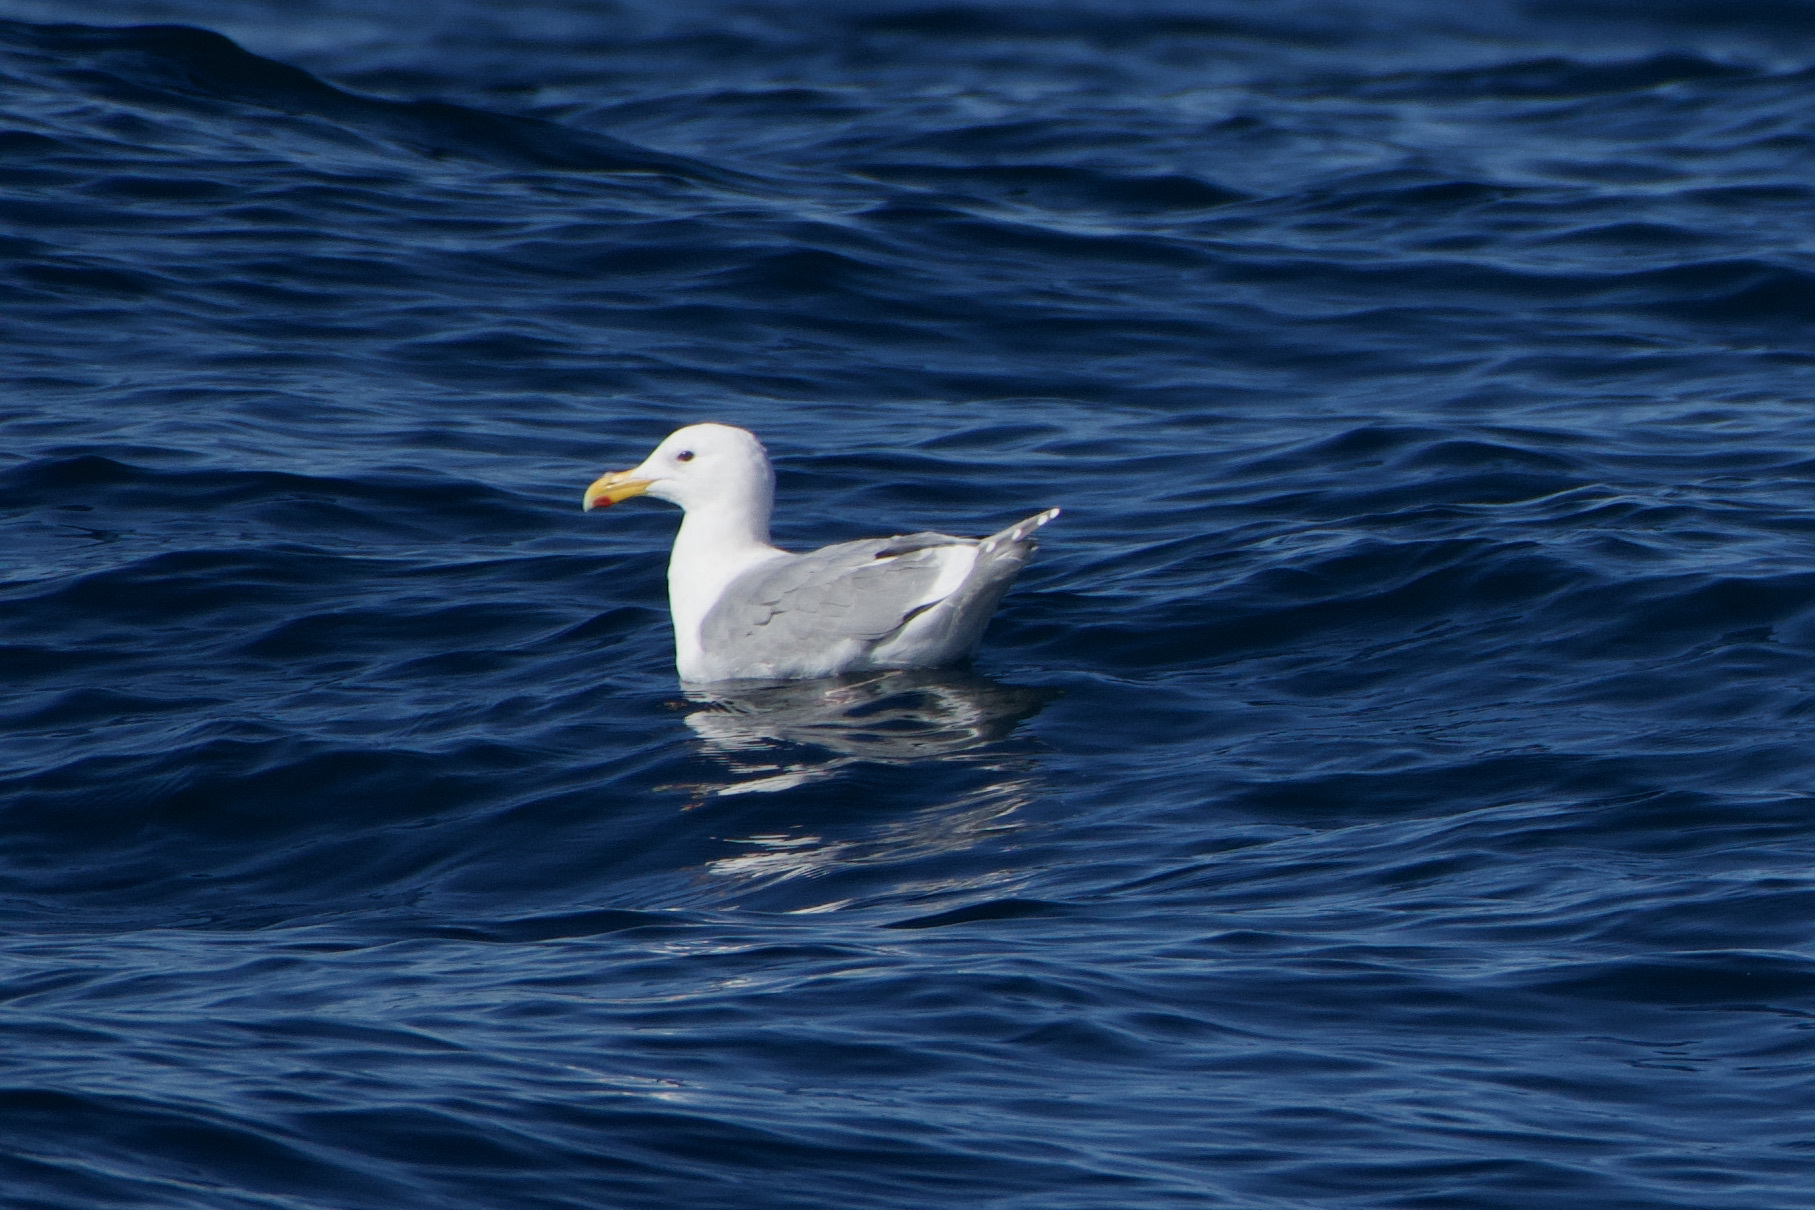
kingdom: Animalia
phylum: Chordata
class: Aves
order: Charadriiformes
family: Laridae
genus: Larus
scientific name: Larus
